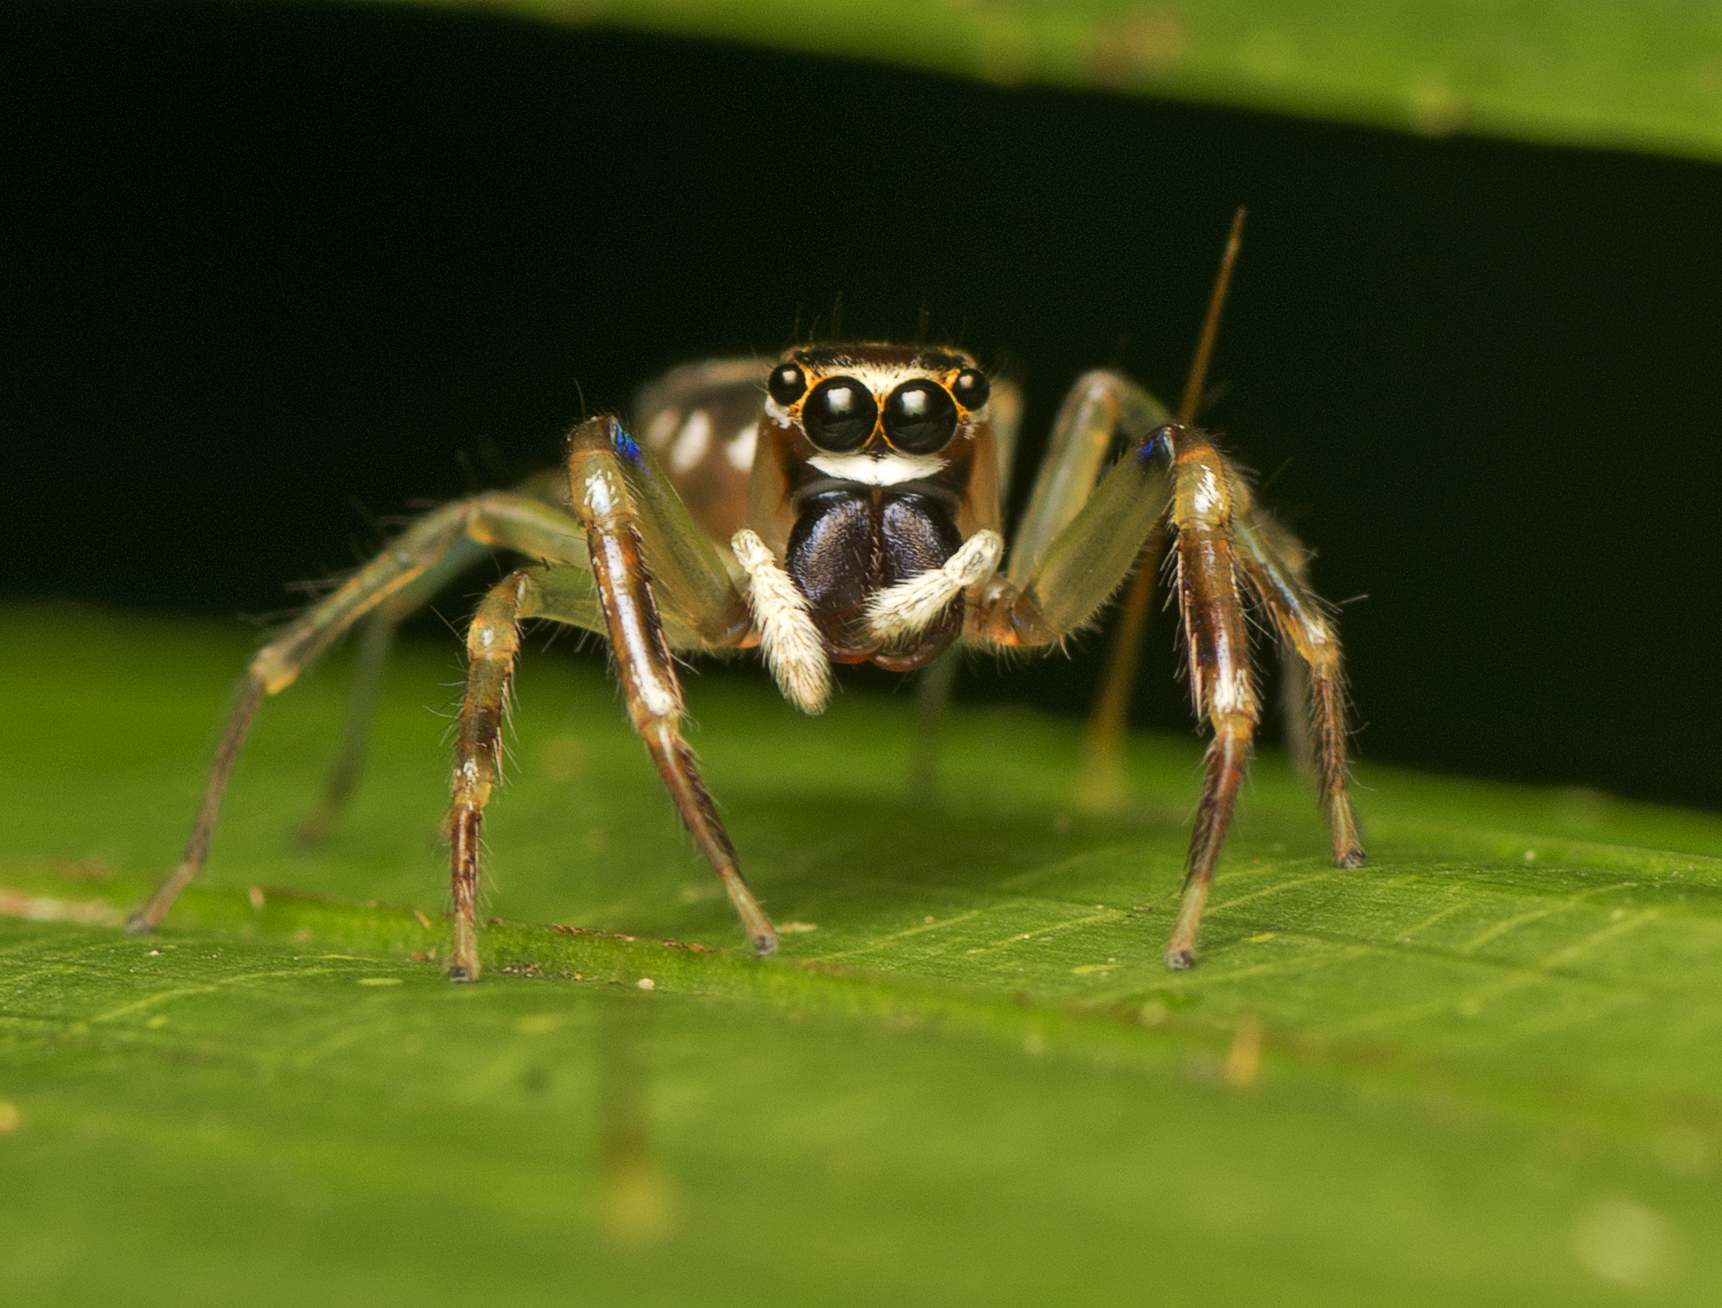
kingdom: Animalia
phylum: Arthropoda
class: Arachnida
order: Araneae
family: Salticidae
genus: Tauala
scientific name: Tauala lepidus
